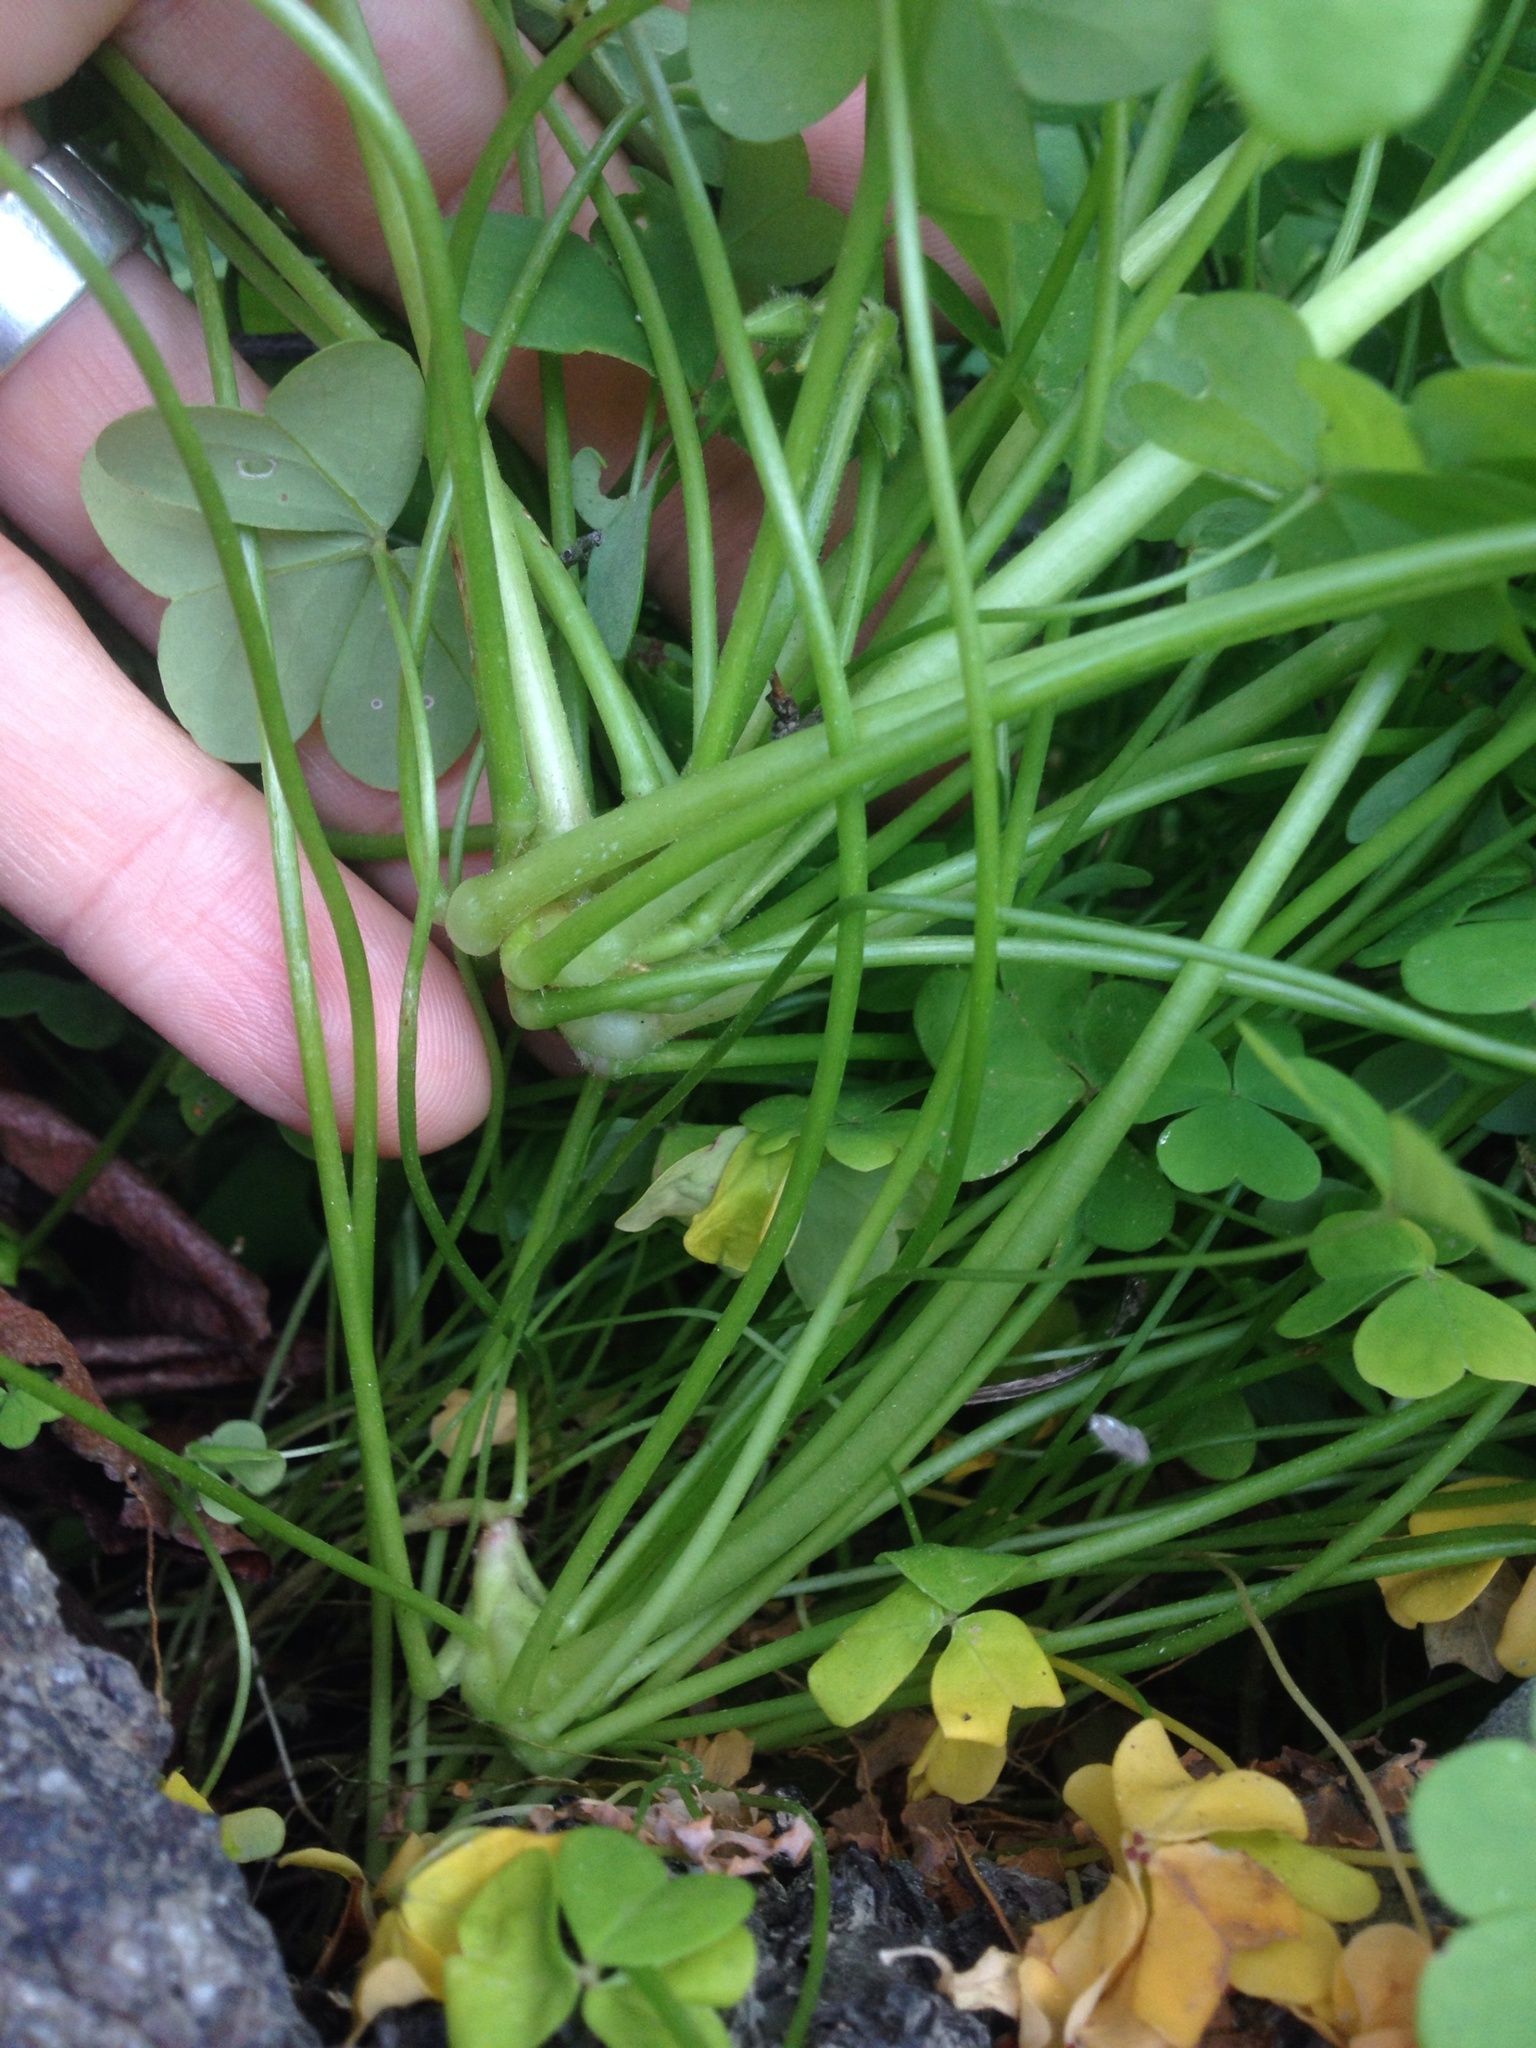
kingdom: Plantae
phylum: Tracheophyta
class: Magnoliopsida
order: Oxalidales
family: Oxalidaceae
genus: Oxalis
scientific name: Oxalis pes-caprae
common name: Bermuda-buttercup
